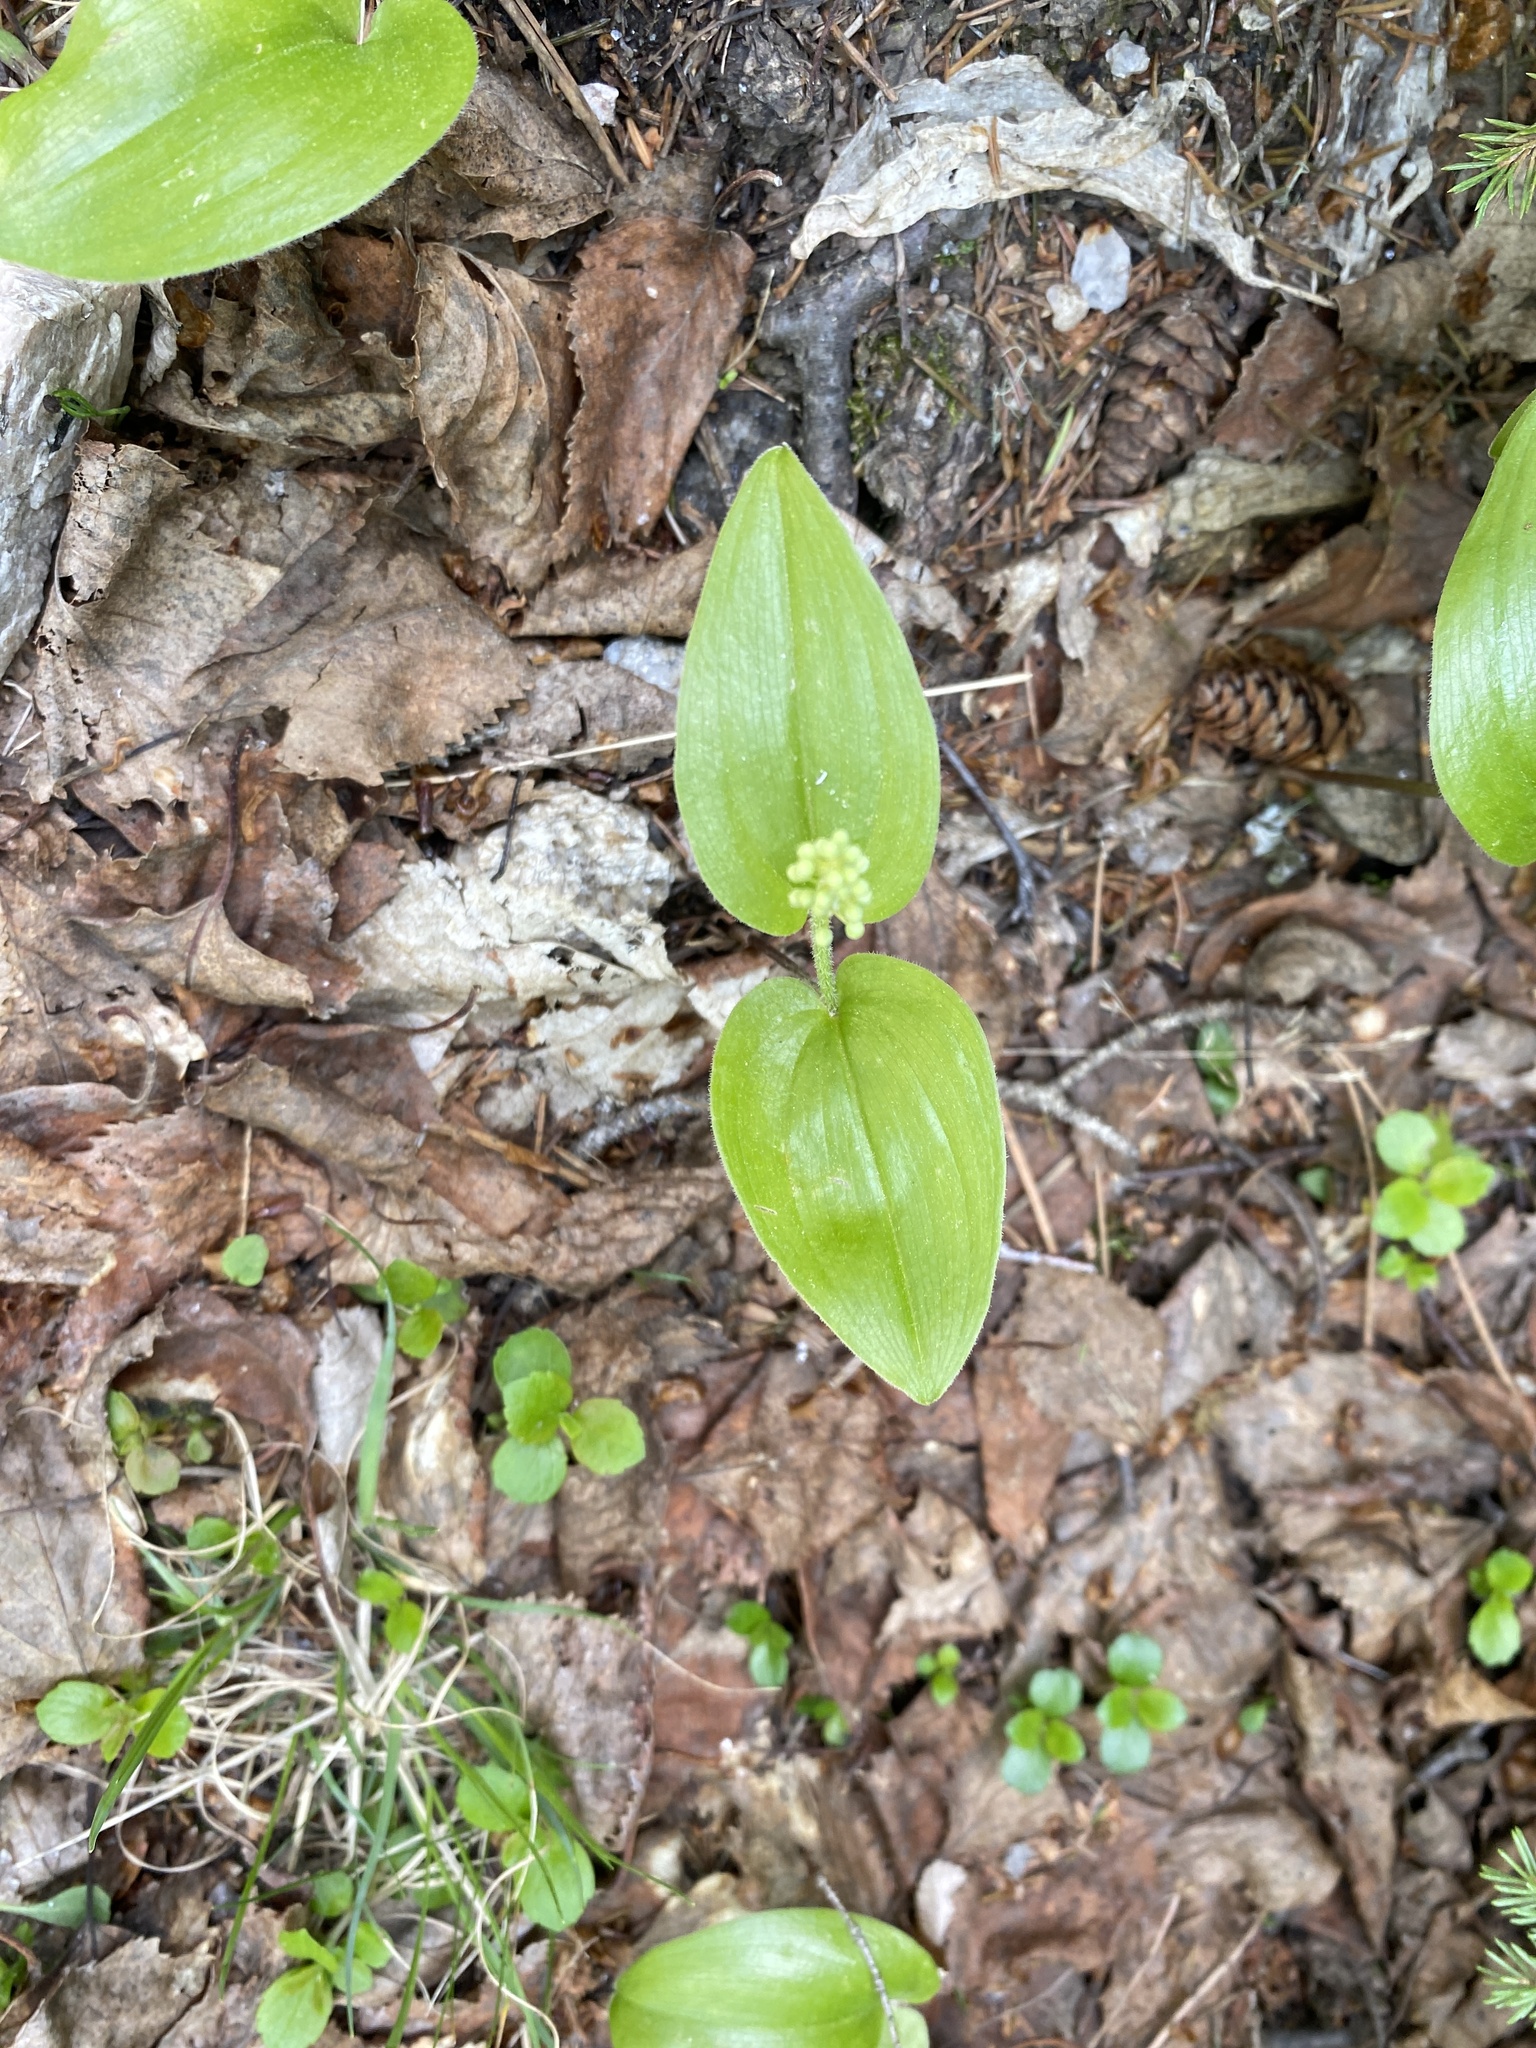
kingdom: Plantae
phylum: Tracheophyta
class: Liliopsida
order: Asparagales
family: Asparagaceae
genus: Maianthemum
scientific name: Maianthemum canadense
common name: False lily-of-the-valley
